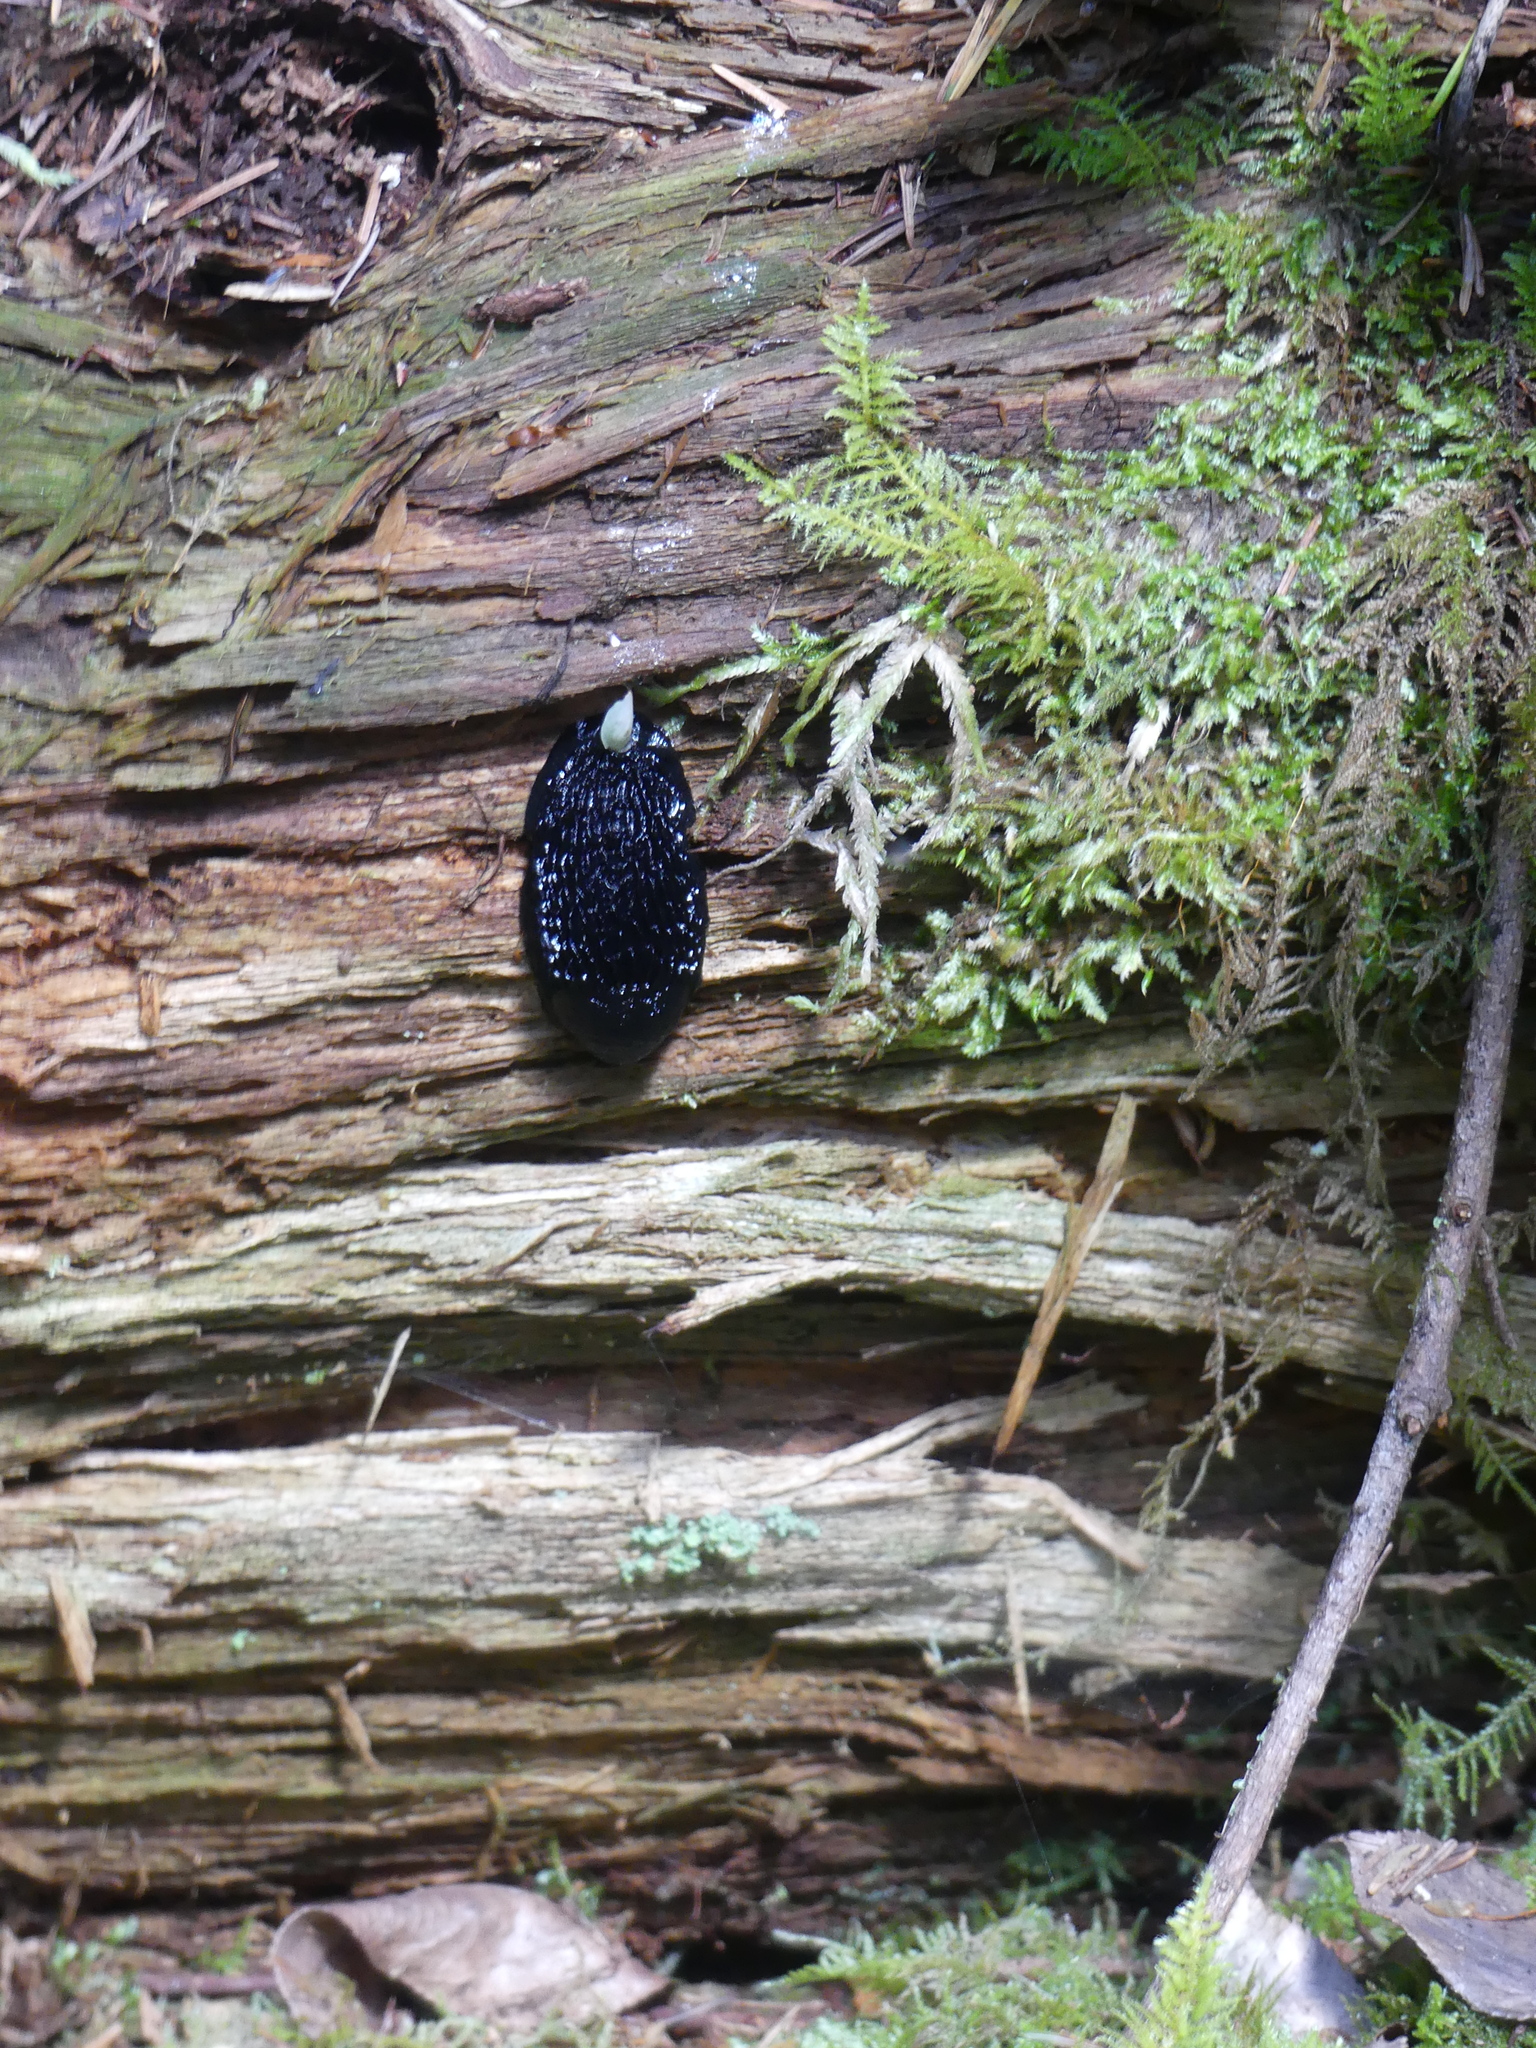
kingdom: Animalia
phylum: Mollusca
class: Gastropoda
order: Stylommatophora
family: Arionidae
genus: Arion
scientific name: Arion
